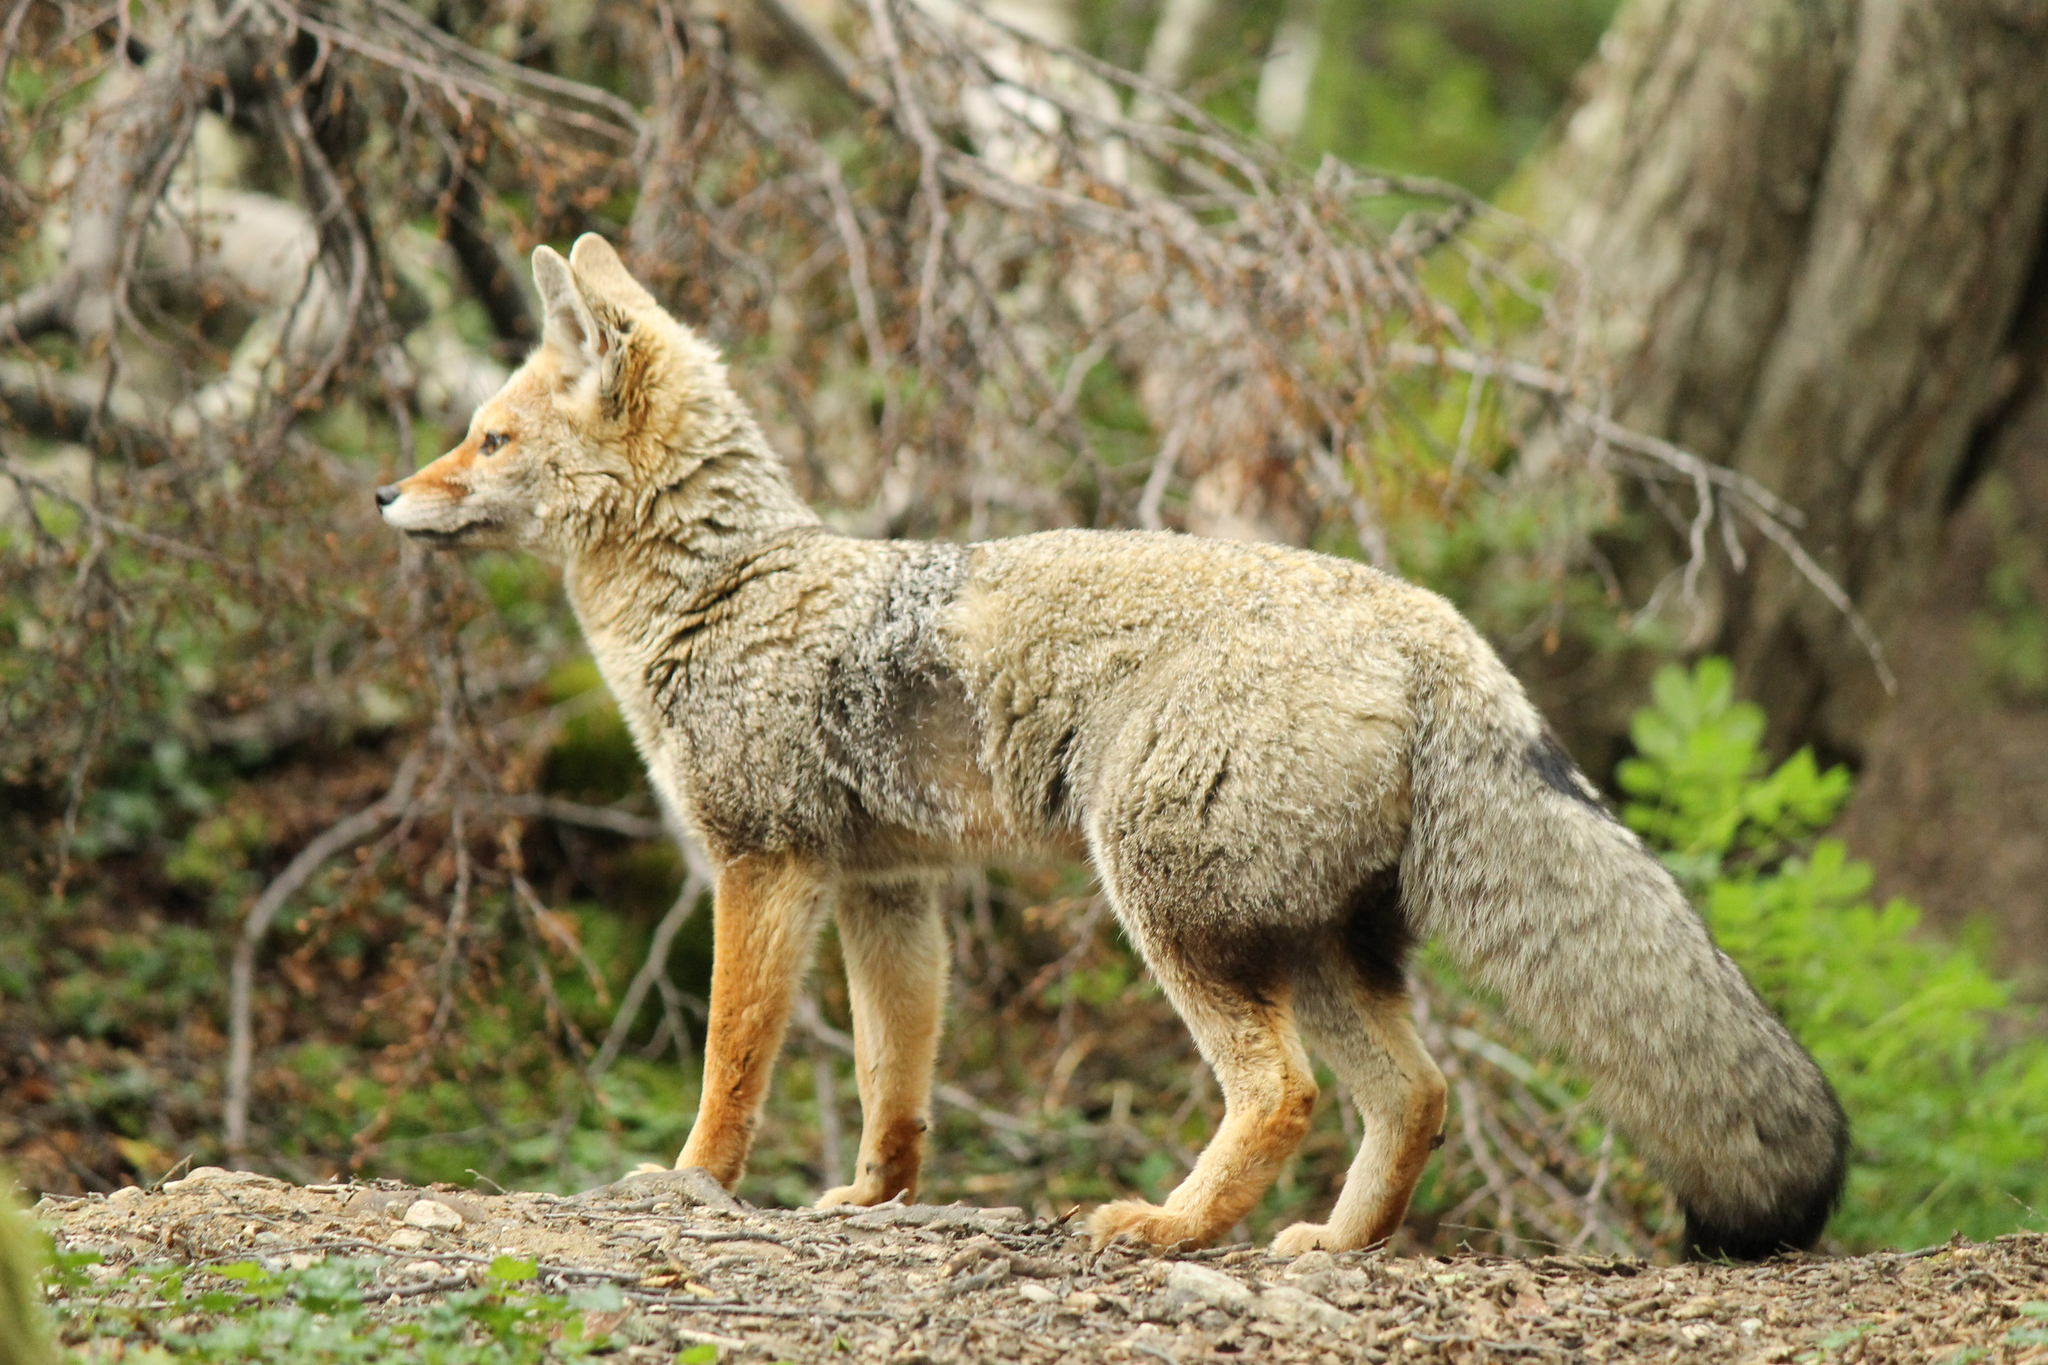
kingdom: Animalia
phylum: Chordata
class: Mammalia
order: Carnivora
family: Canidae
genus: Lycalopex
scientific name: Lycalopex gymnocercus
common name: Pampas fox
